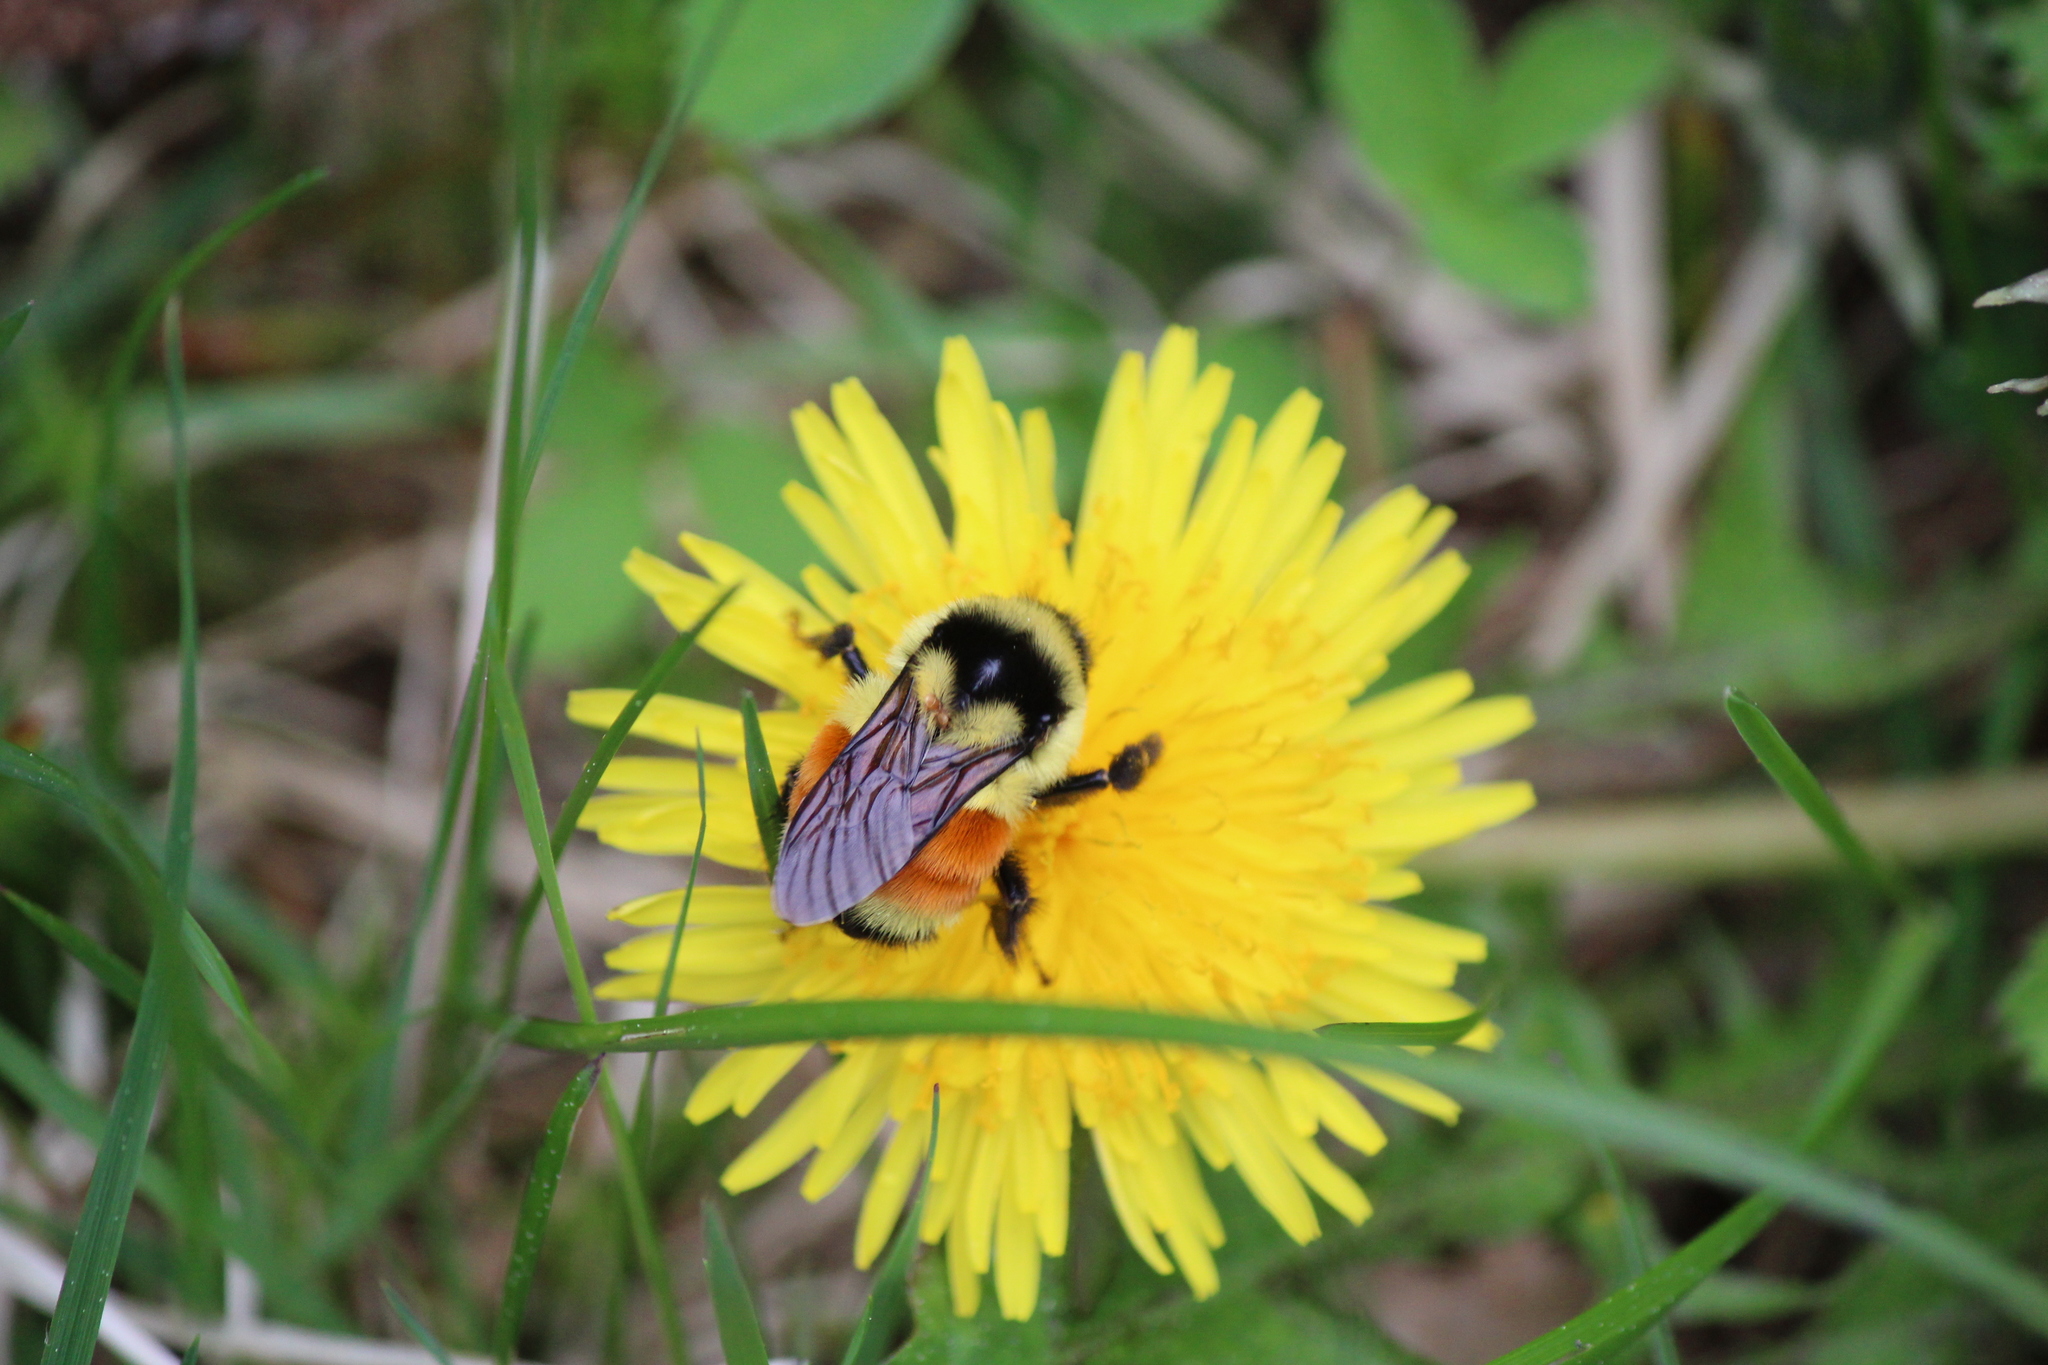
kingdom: Animalia
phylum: Arthropoda
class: Insecta
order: Hymenoptera
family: Apidae
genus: Bombus
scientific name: Bombus ternarius
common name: Tri-colored bumble bee
